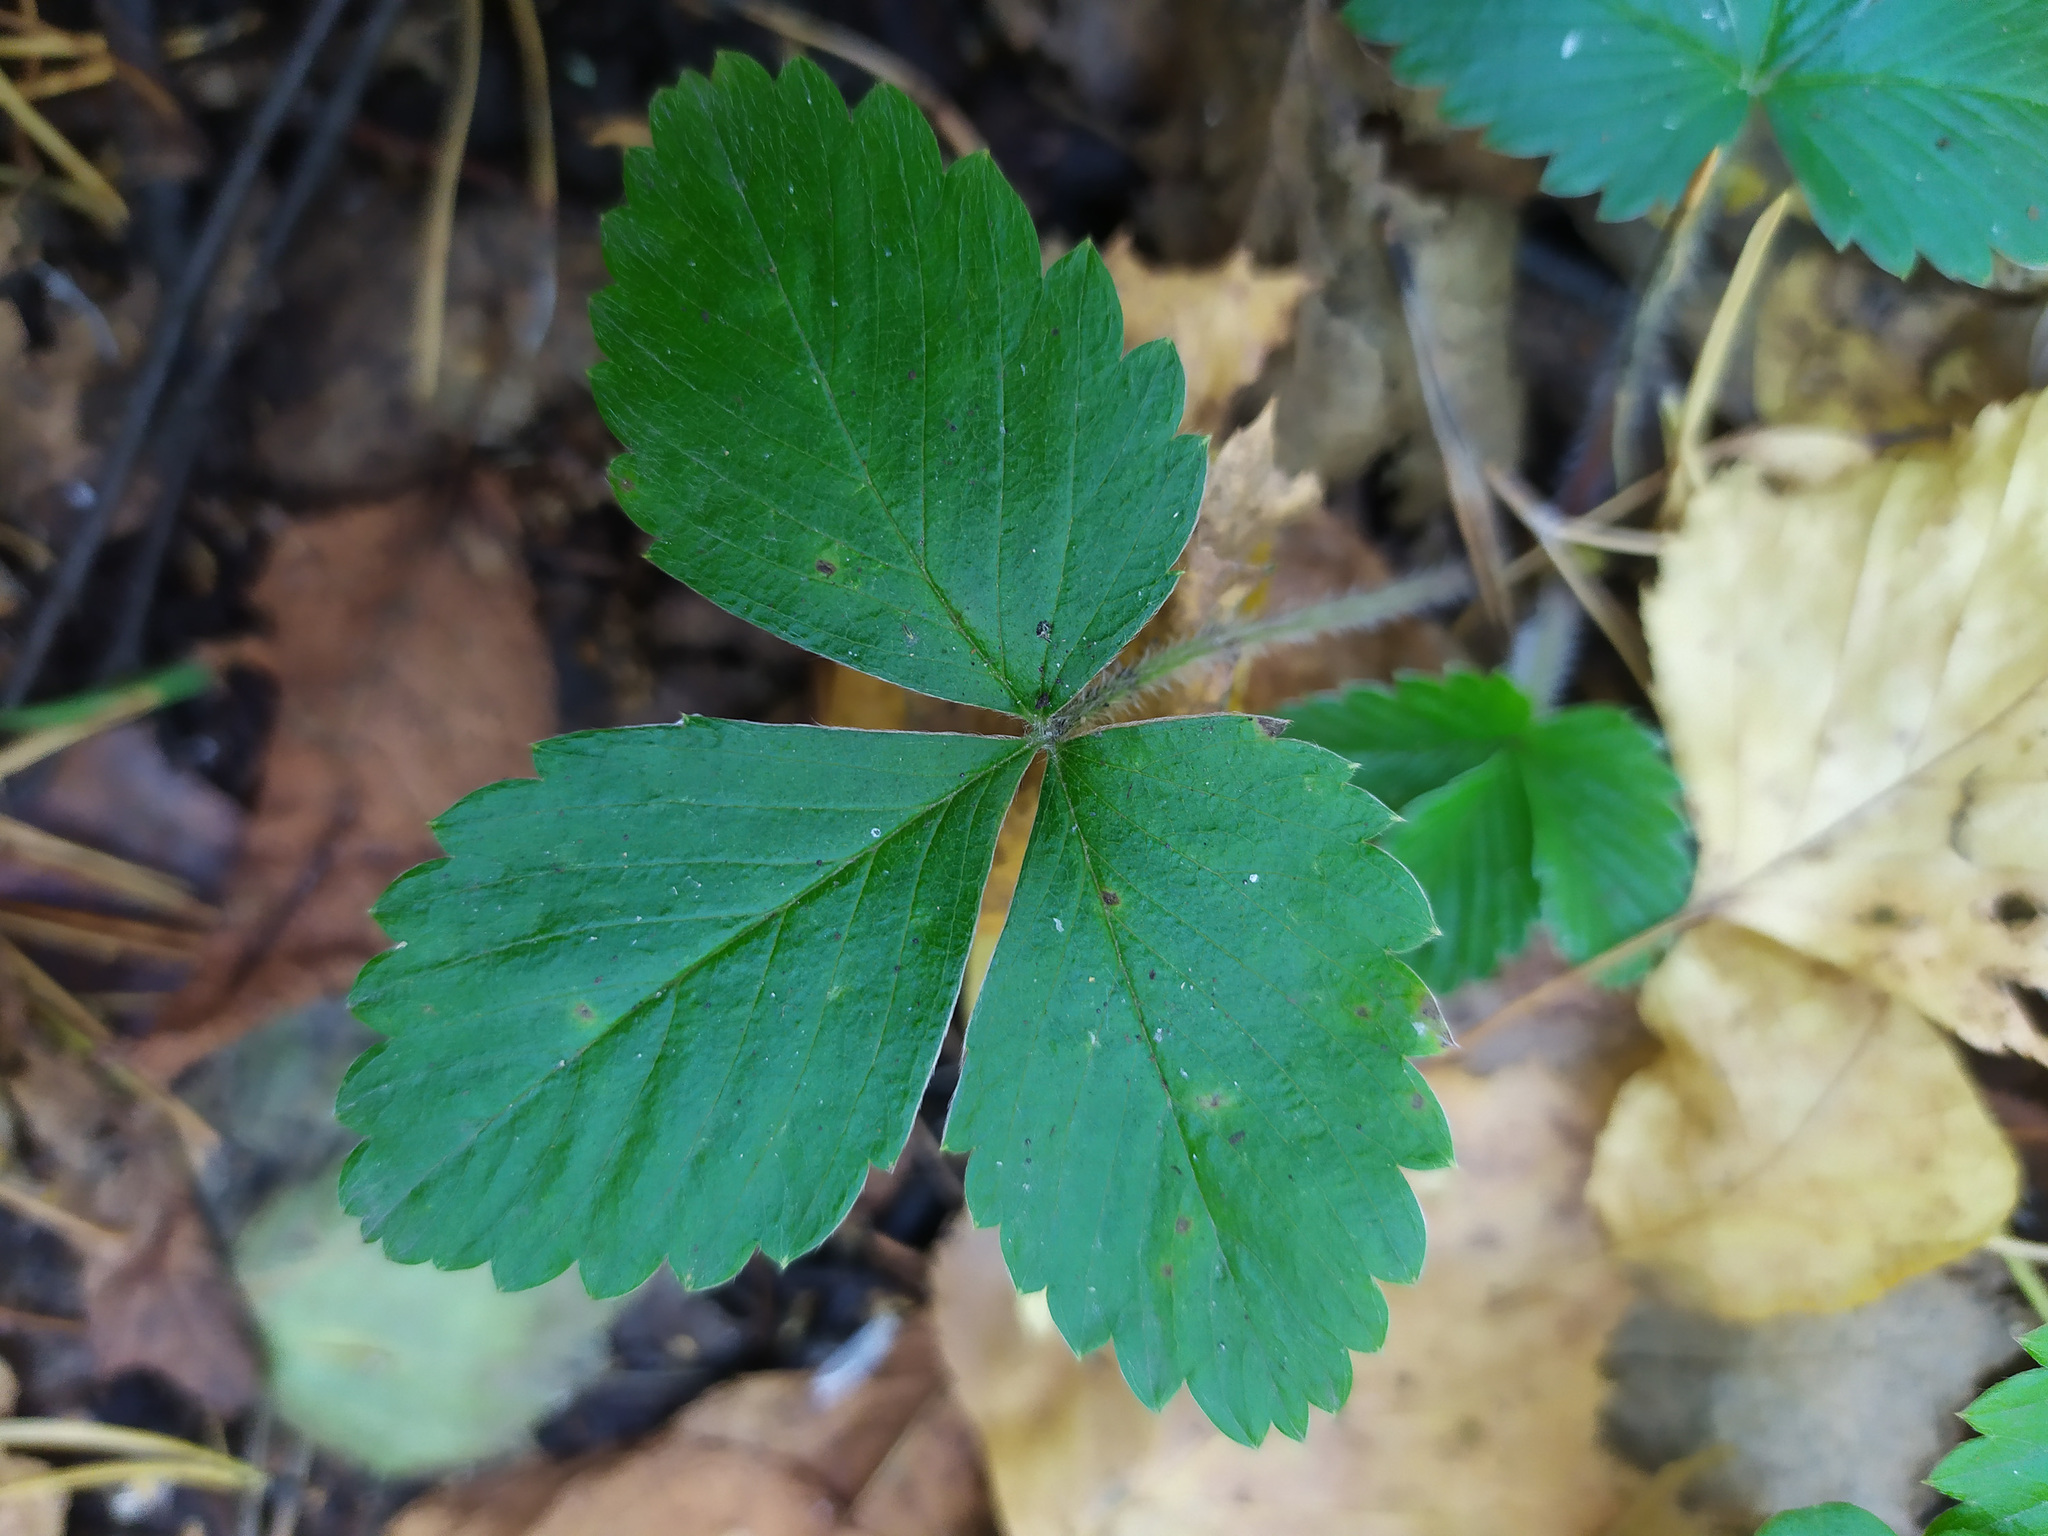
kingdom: Plantae
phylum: Tracheophyta
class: Magnoliopsida
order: Rosales
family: Rosaceae
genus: Fragaria
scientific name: Fragaria vesca
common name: Wild strawberry
